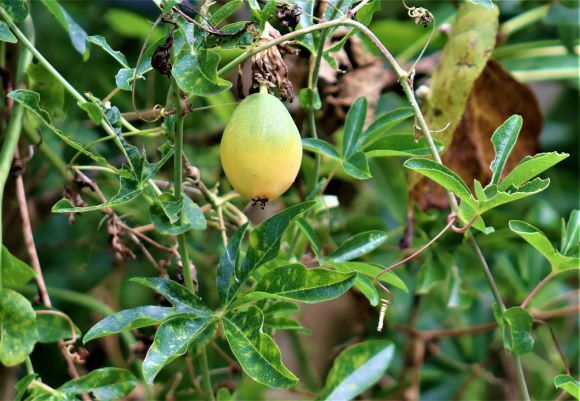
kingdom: Plantae
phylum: Tracheophyta
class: Magnoliopsida
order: Malpighiales
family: Passifloraceae
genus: Passiflora
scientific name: Passiflora caerulea
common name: Blue passionflower
